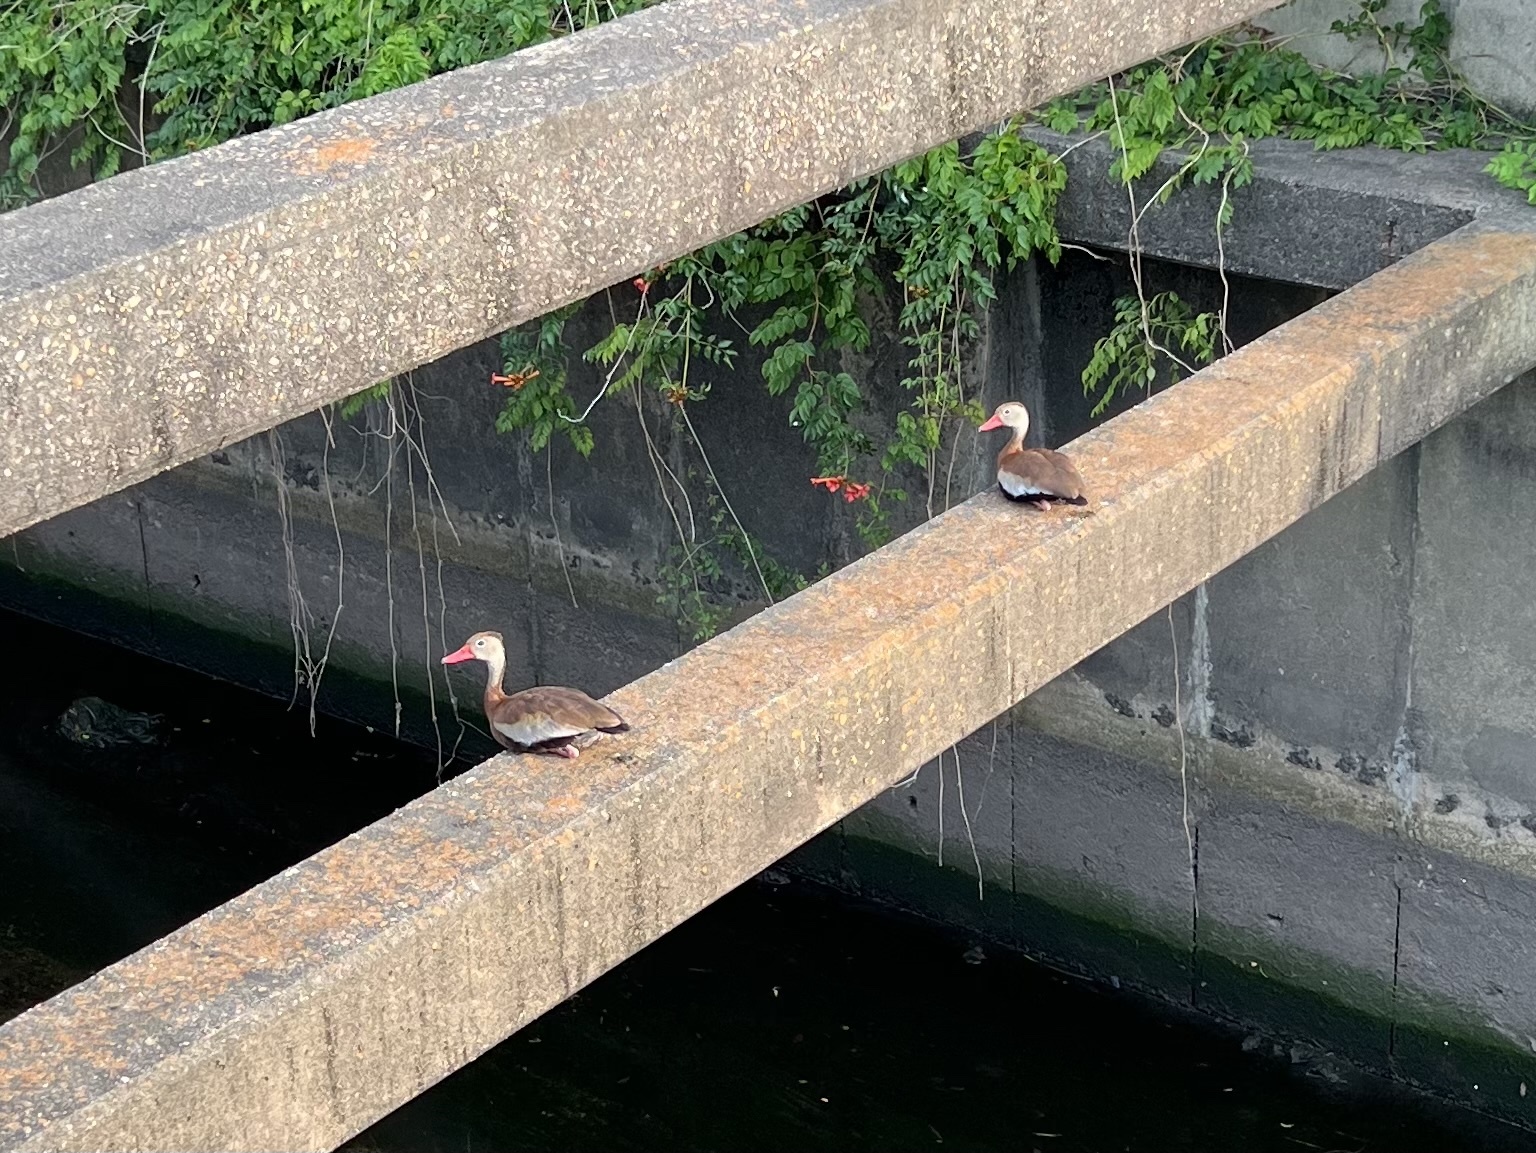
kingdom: Animalia
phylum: Chordata
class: Aves
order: Anseriformes
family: Anatidae
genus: Dendrocygna
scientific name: Dendrocygna autumnalis
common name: Black-bellied whistling duck
